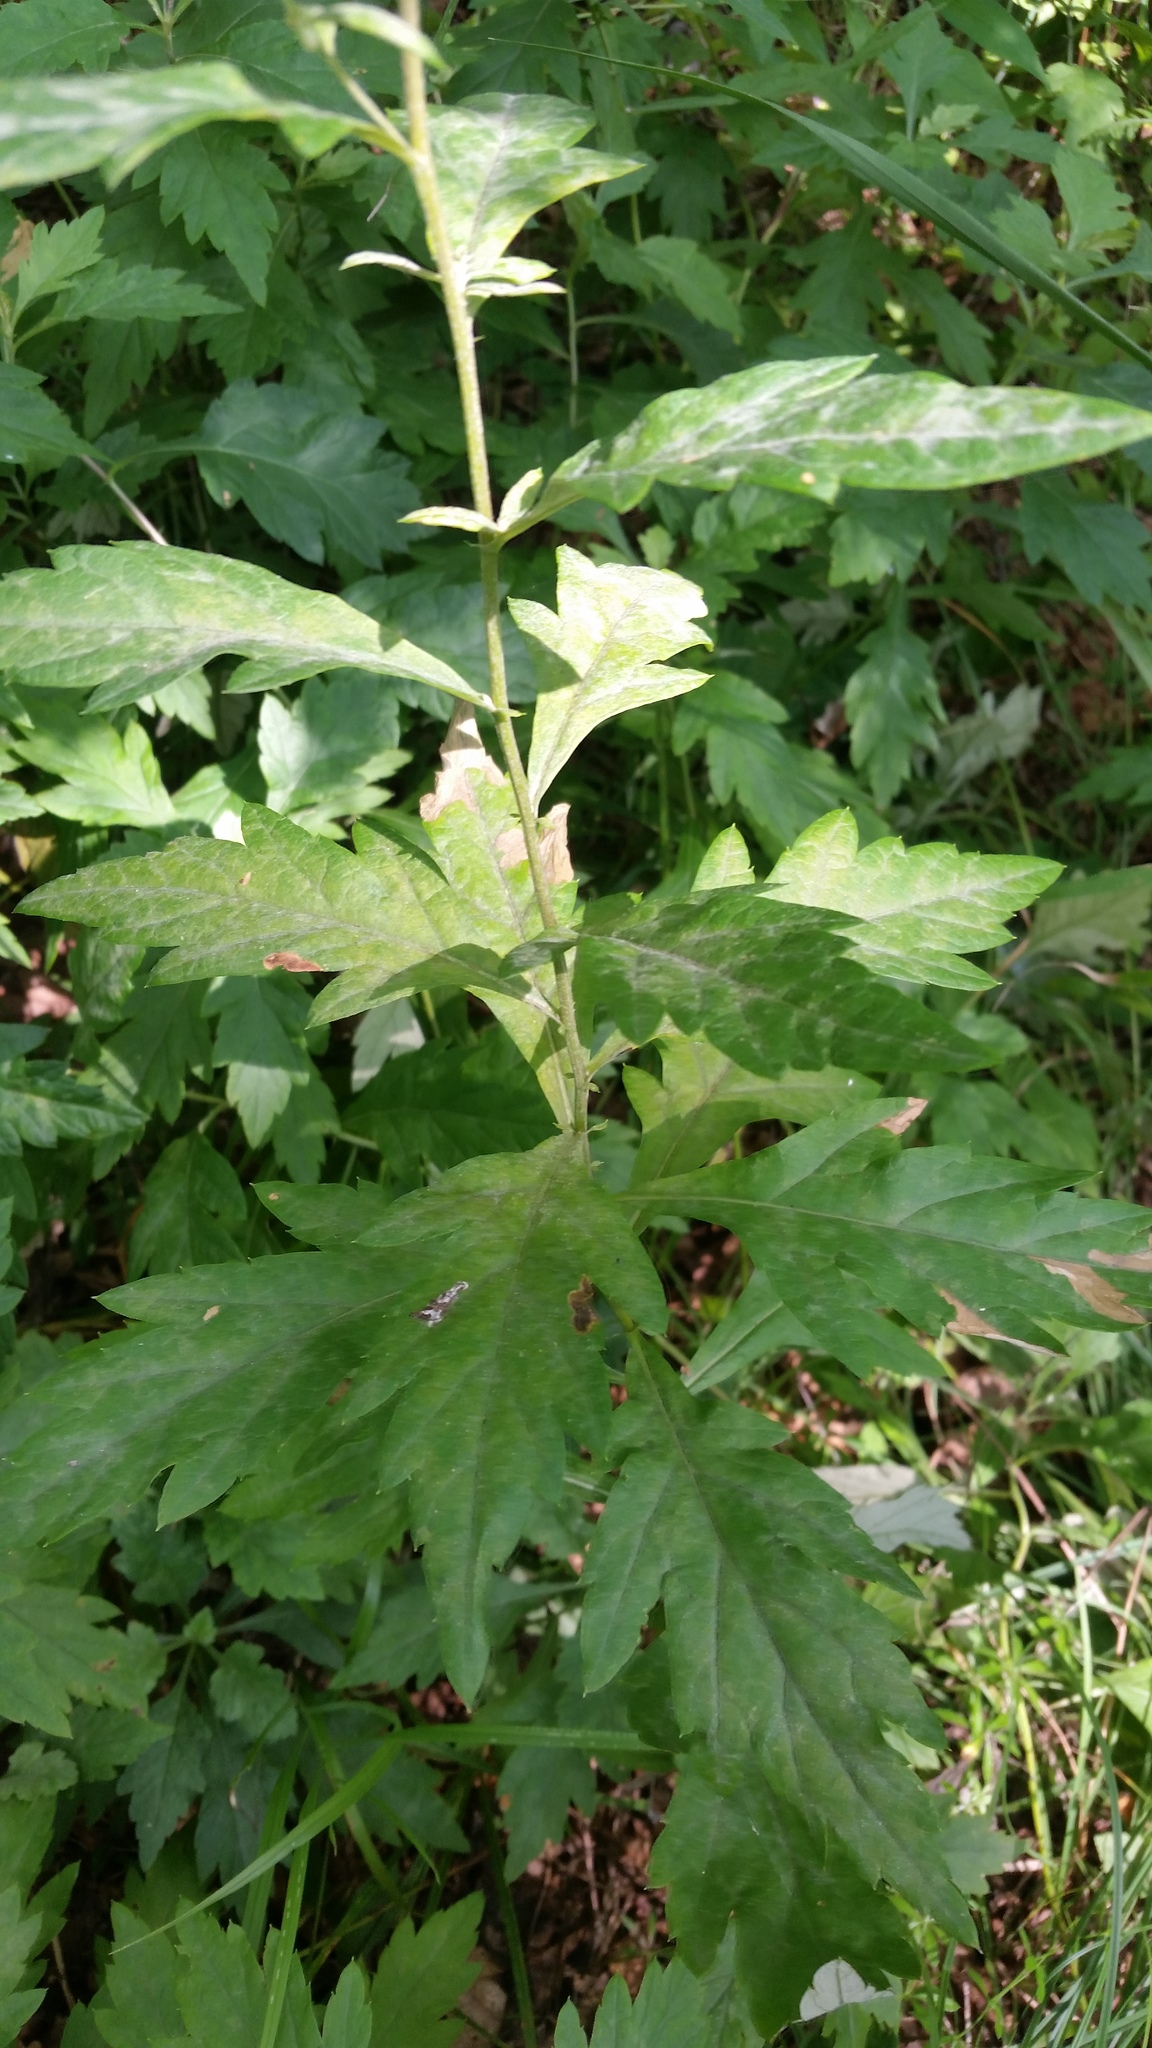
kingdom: Plantae
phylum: Tracheophyta
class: Magnoliopsida
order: Asterales
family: Asteraceae
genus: Artemisia
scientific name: Artemisia stolonifera
